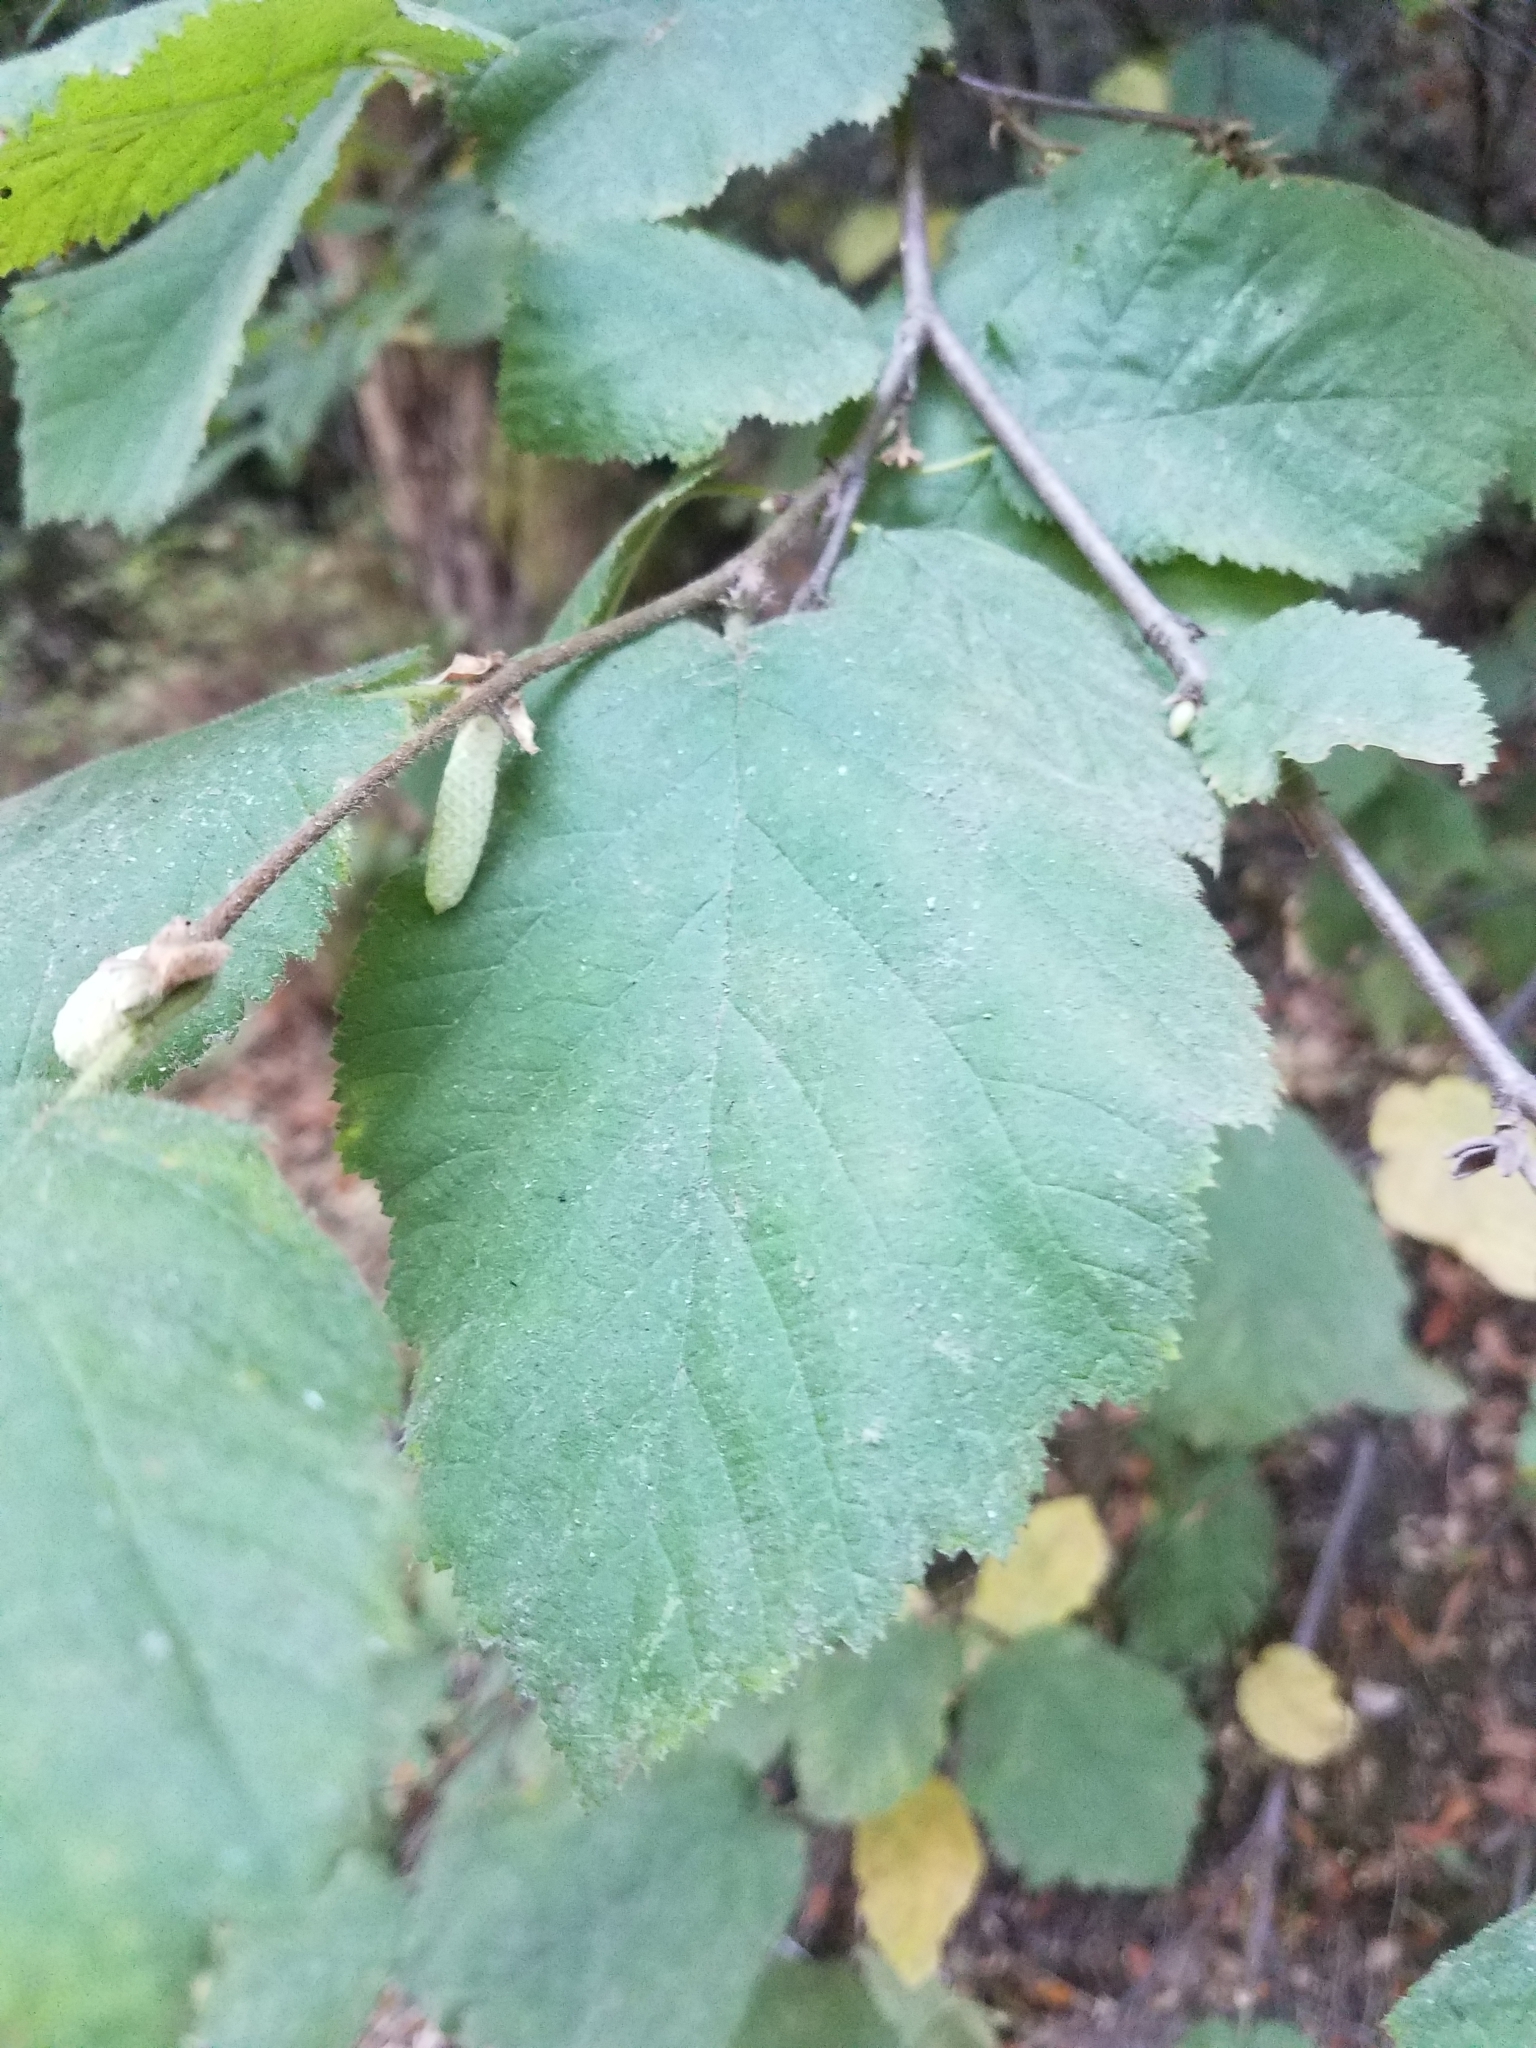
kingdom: Plantae
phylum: Tracheophyta
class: Magnoliopsida
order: Fagales
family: Betulaceae
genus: Corylus
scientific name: Corylus cornuta
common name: Beaked hazel
